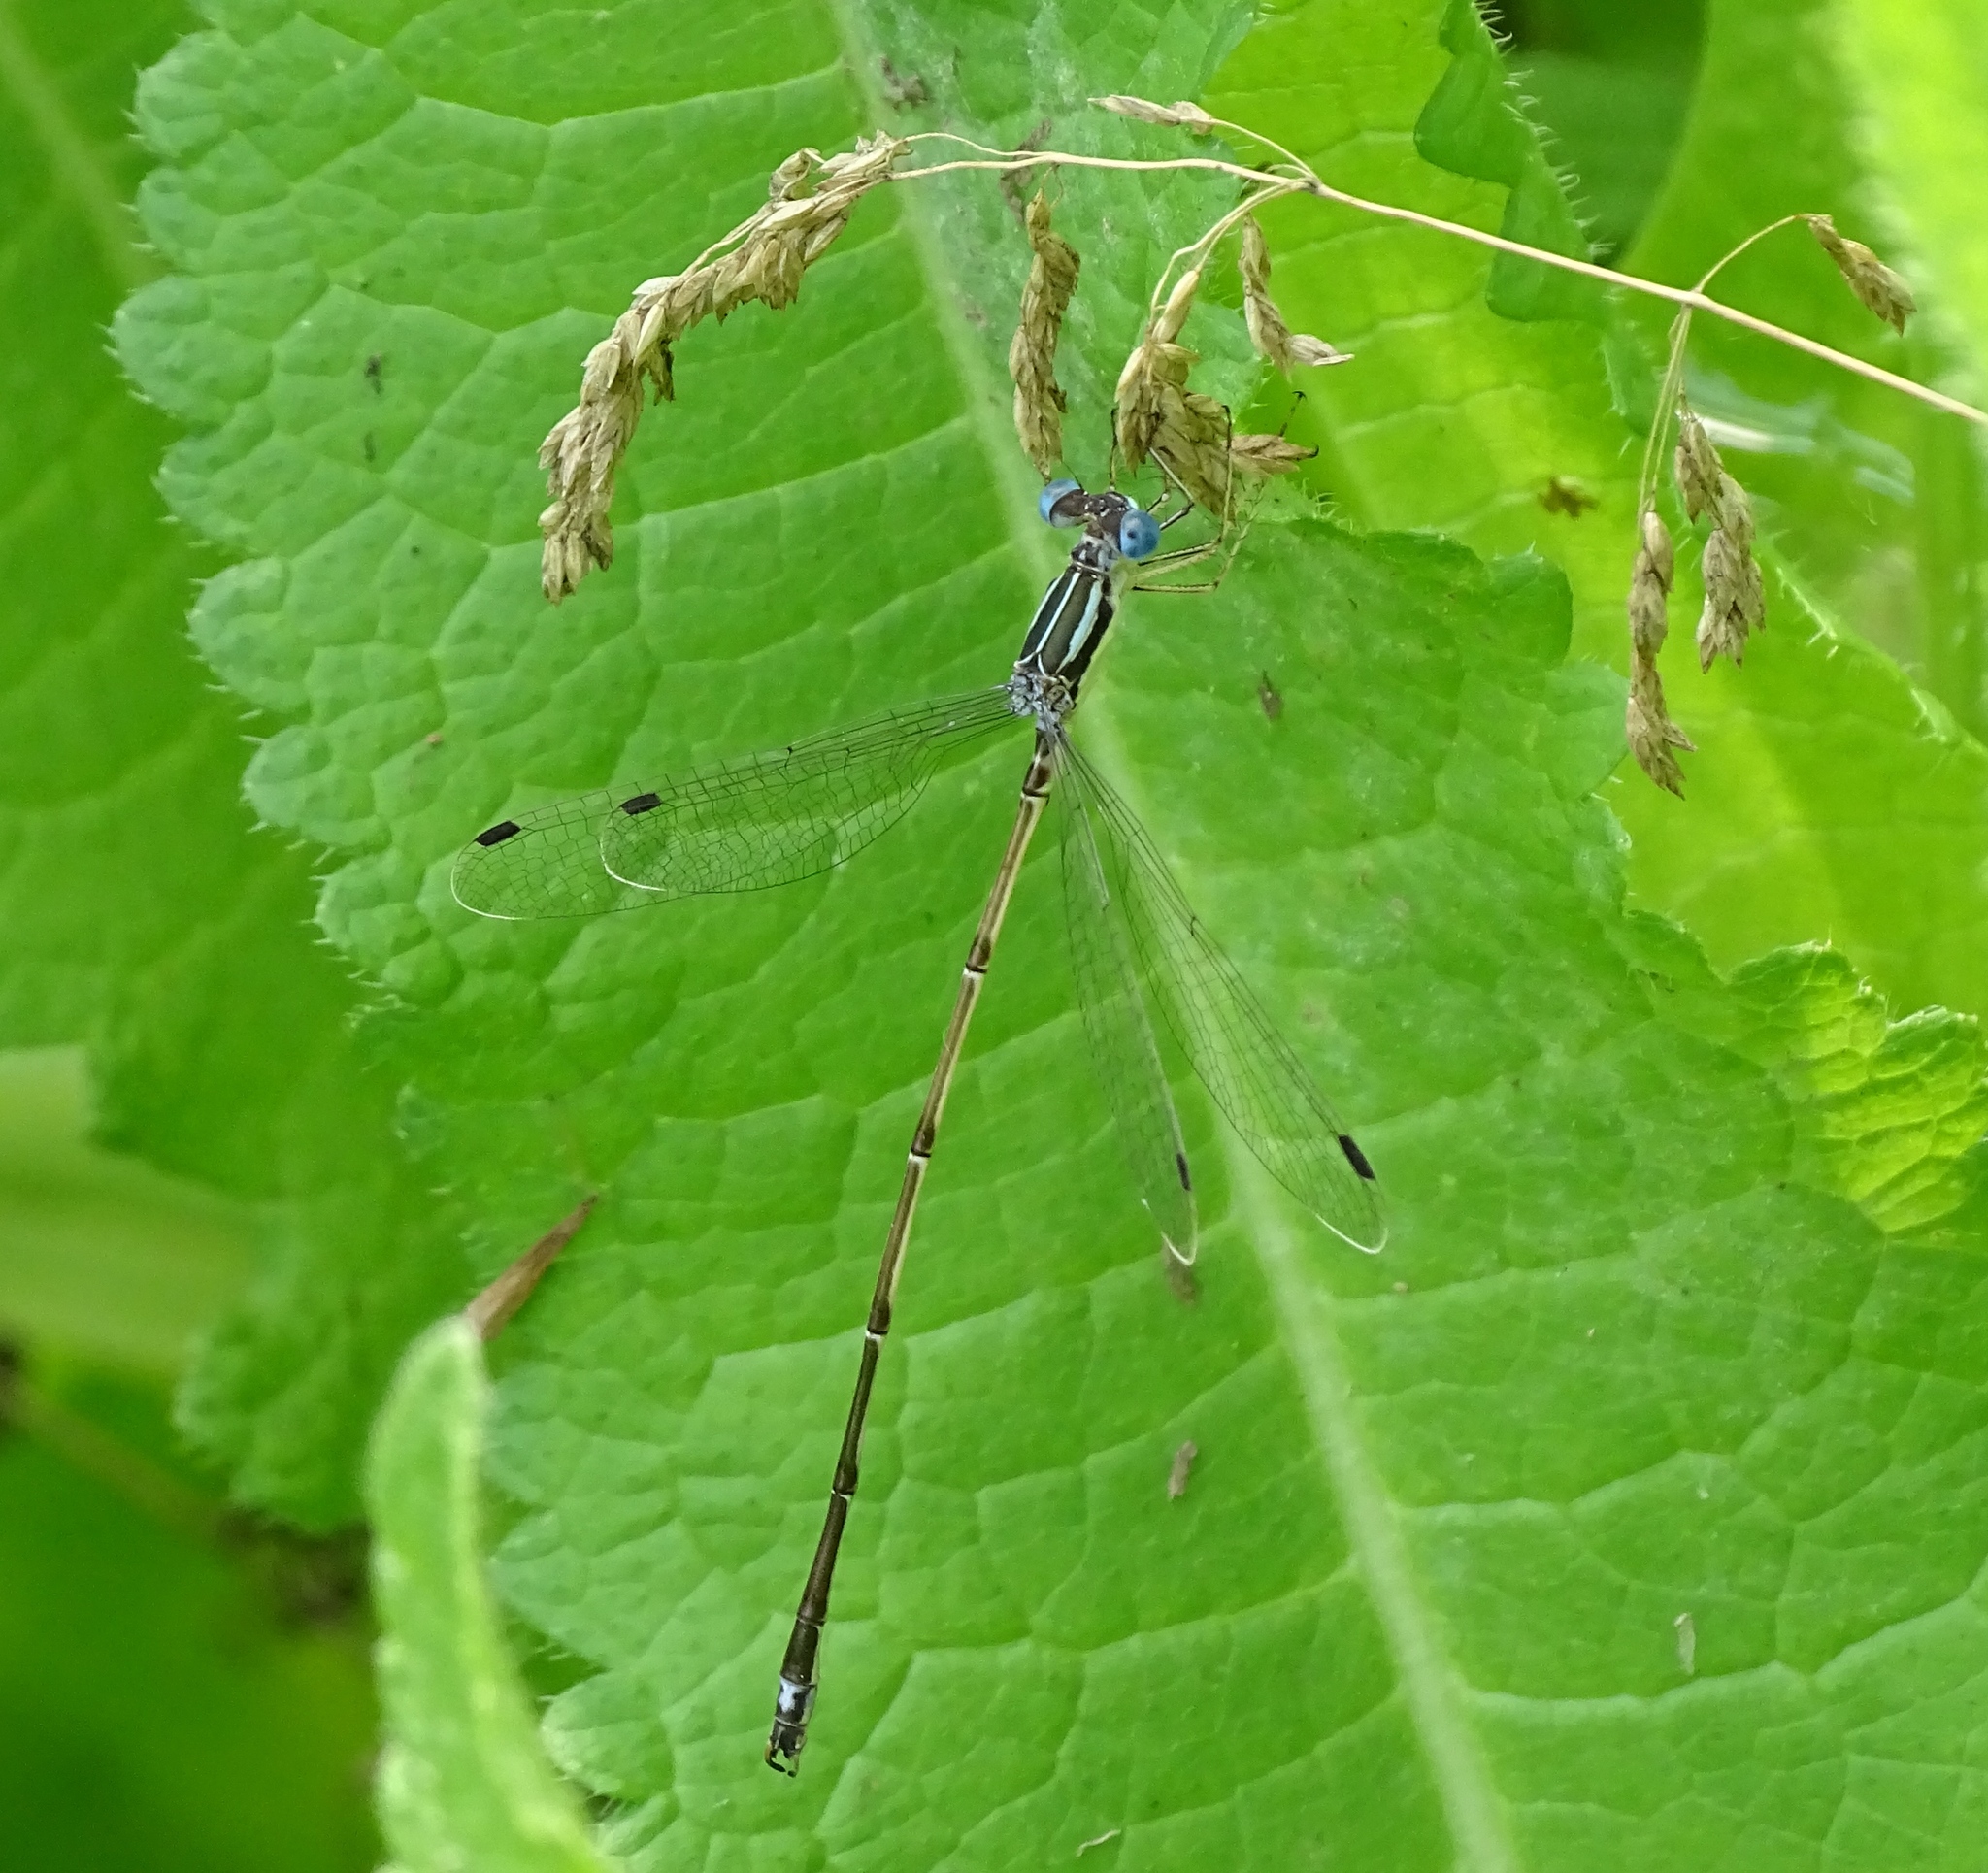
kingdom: Animalia
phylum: Arthropoda
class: Insecta
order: Odonata
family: Lestidae
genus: Lestes
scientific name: Lestes rectangularis
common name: Slender spreadwing
